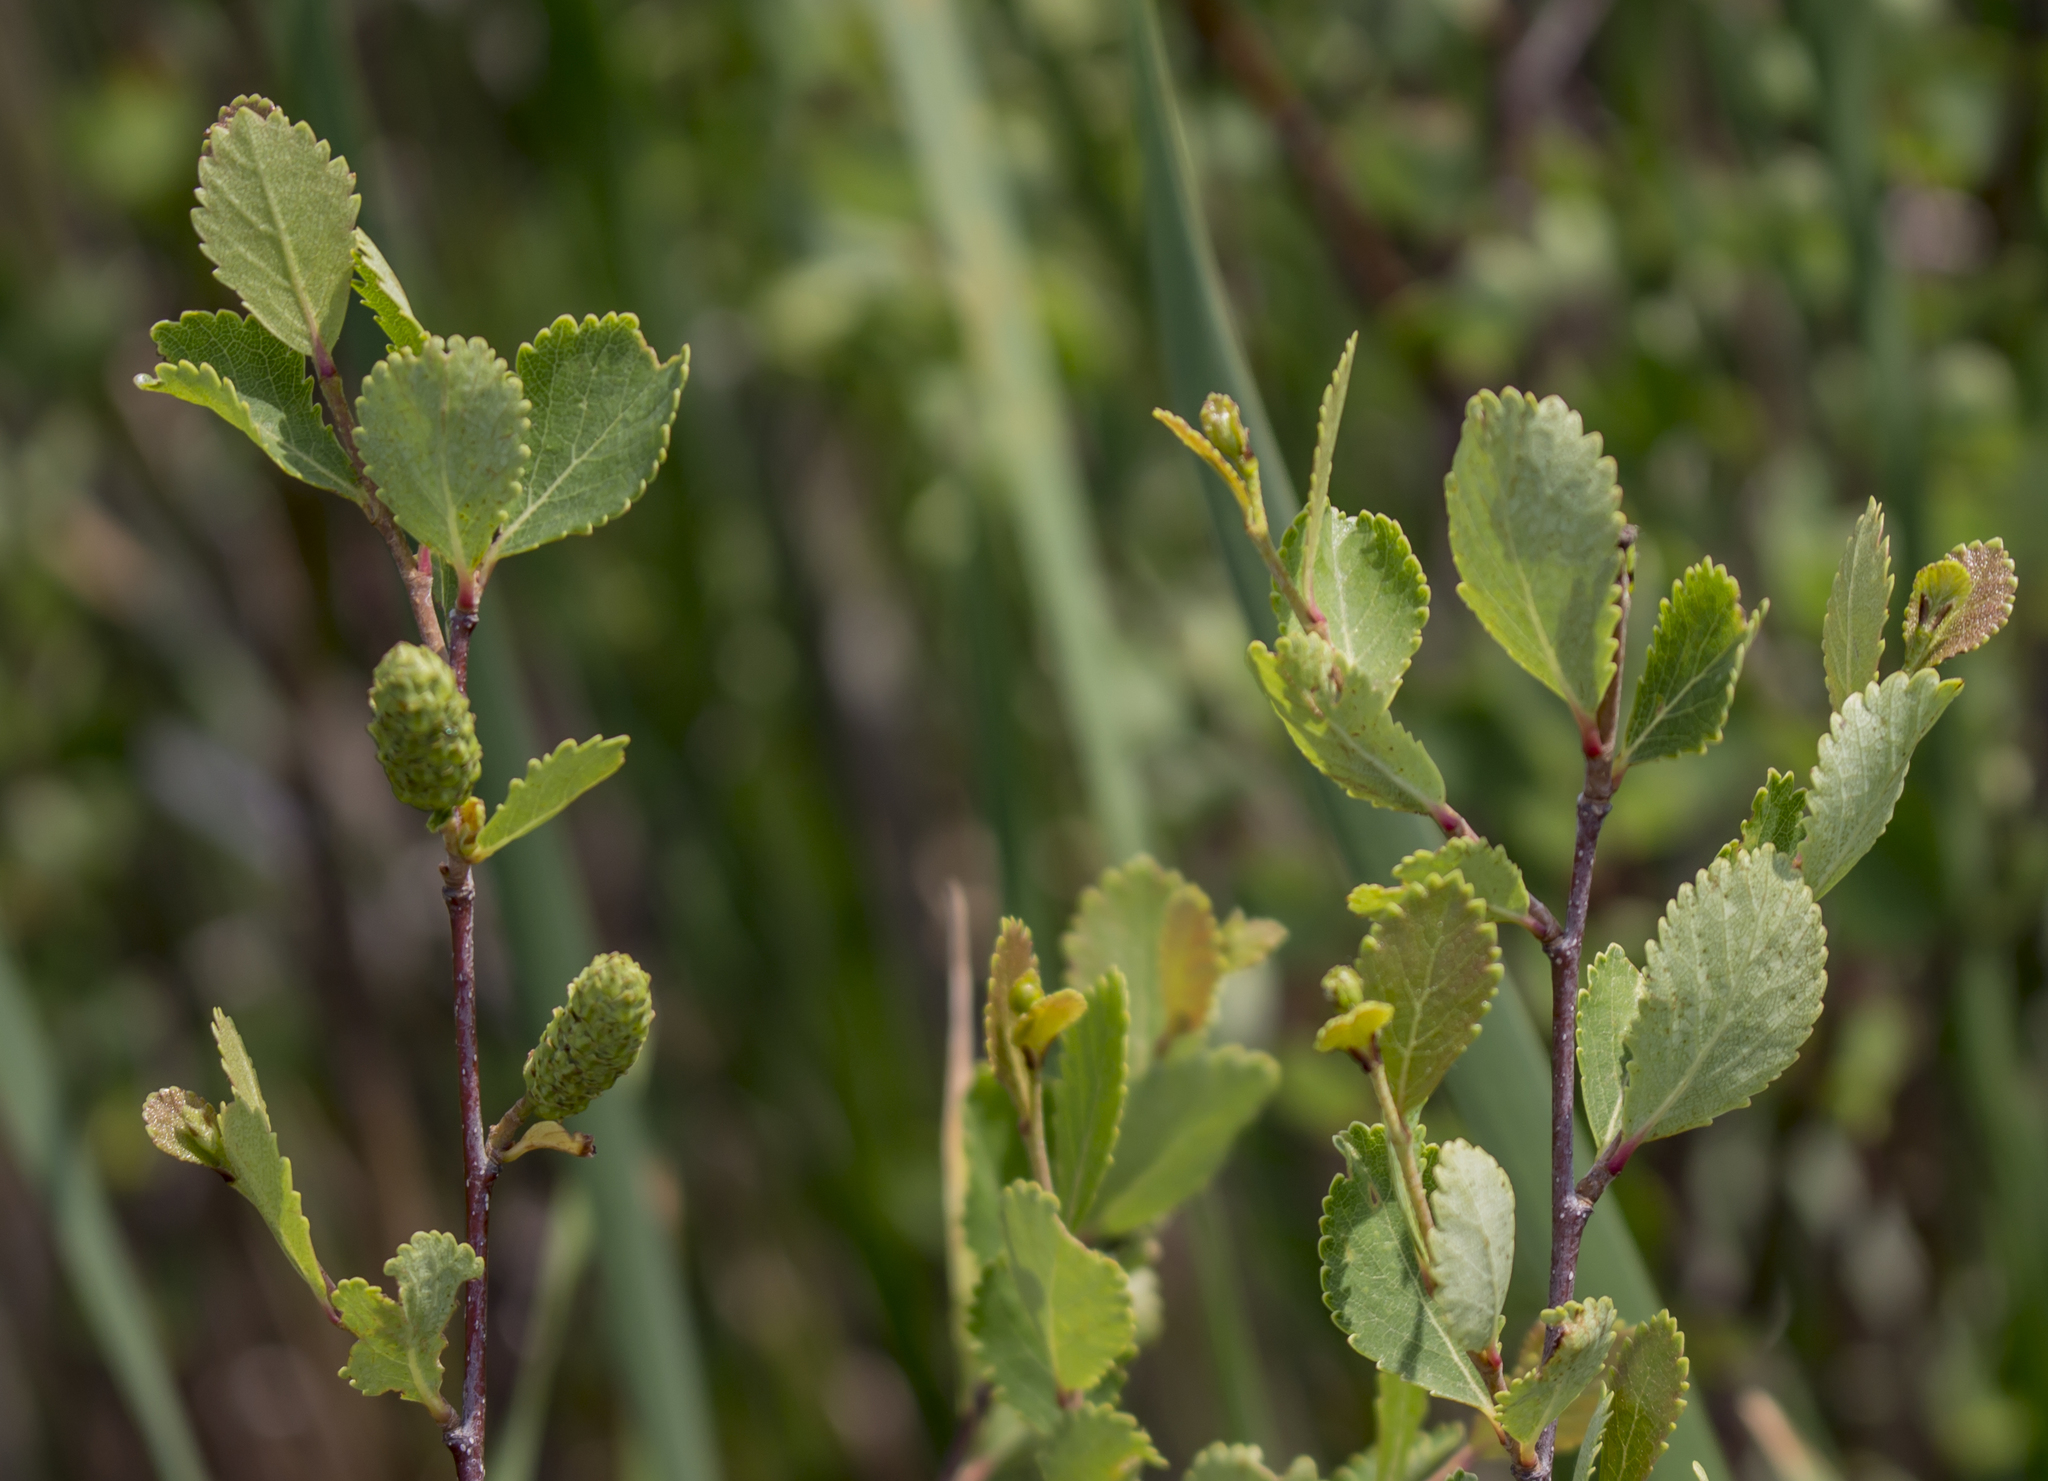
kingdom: Plantae
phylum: Tracheophyta
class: Magnoliopsida
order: Fagales
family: Betulaceae
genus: Betula
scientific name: Betula pumila
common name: Bog birch
